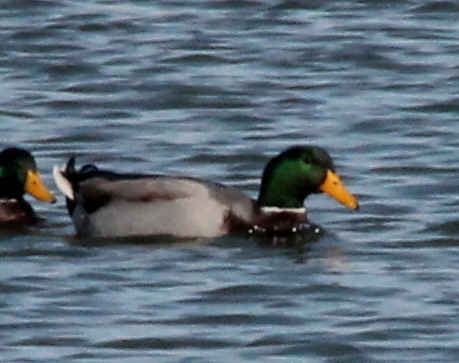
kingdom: Animalia
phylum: Chordata
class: Aves
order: Anseriformes
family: Anatidae
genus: Anas
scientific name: Anas platyrhynchos
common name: Mallard
